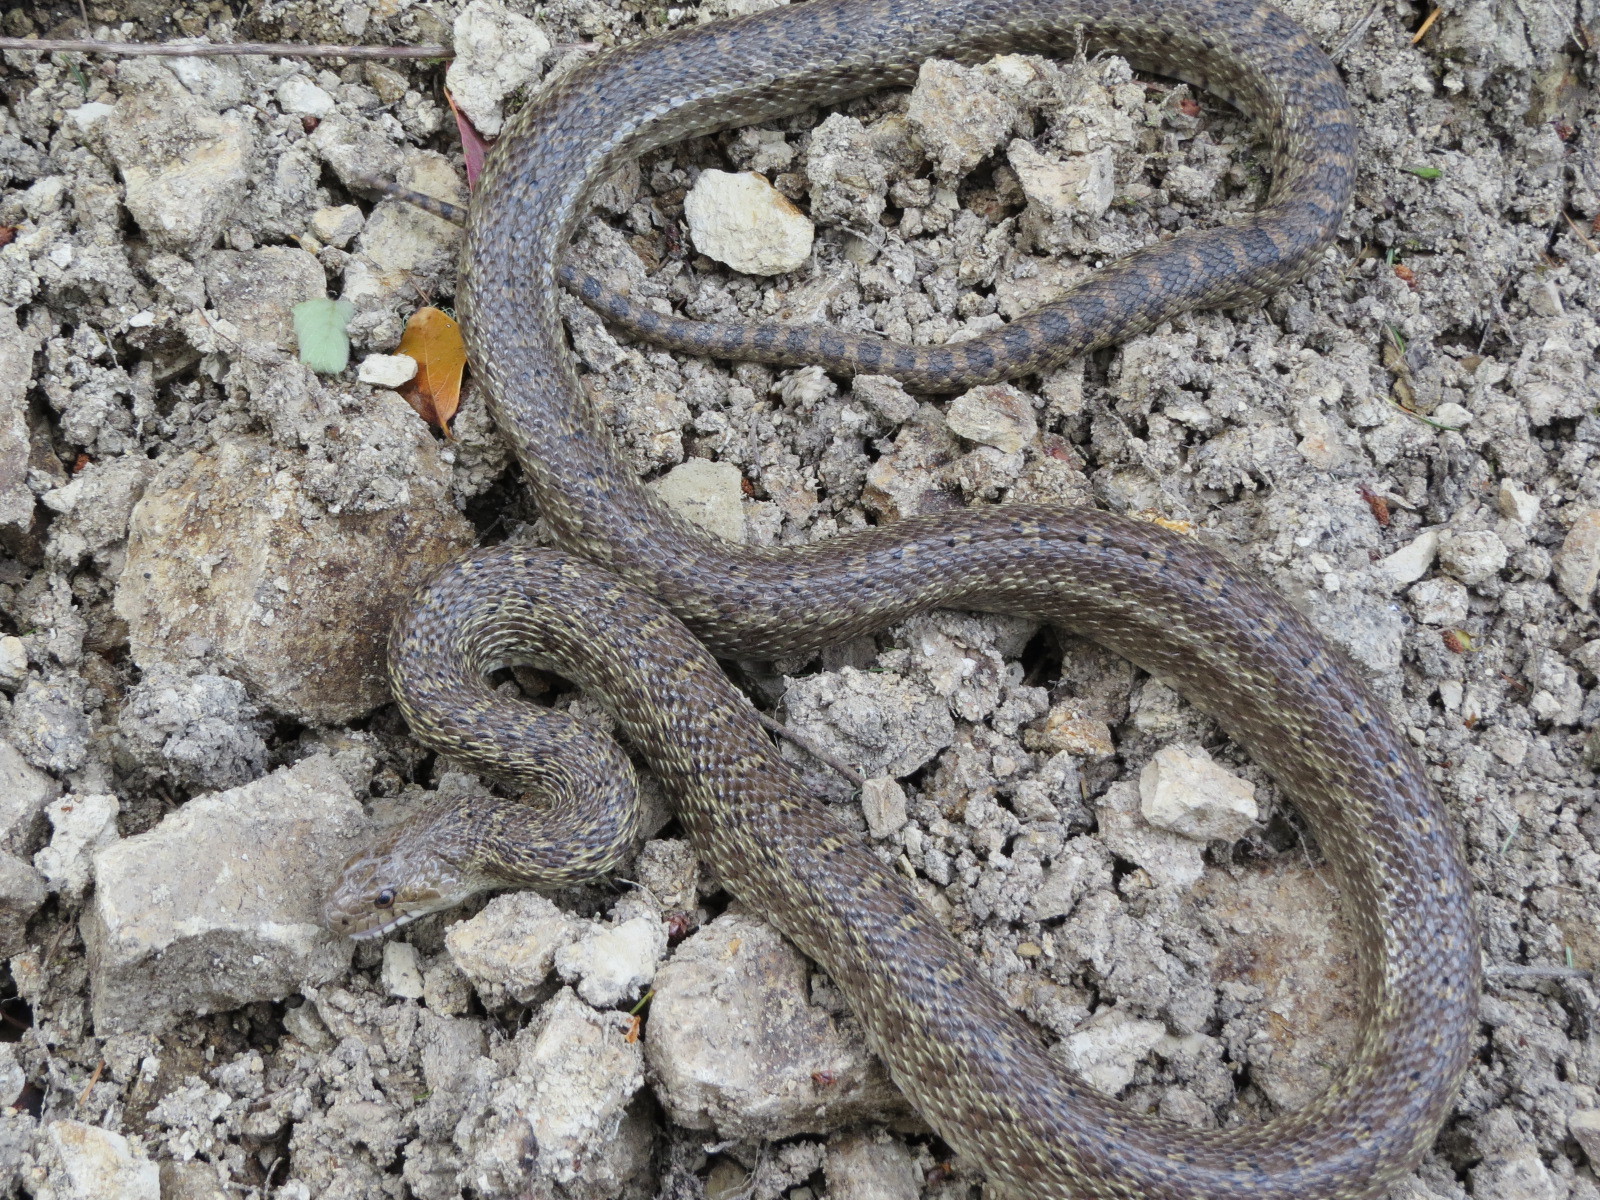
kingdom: Animalia
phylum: Chordata
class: Squamata
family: Colubridae
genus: Pituophis
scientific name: Pituophis catenifer
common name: Gopher snake
